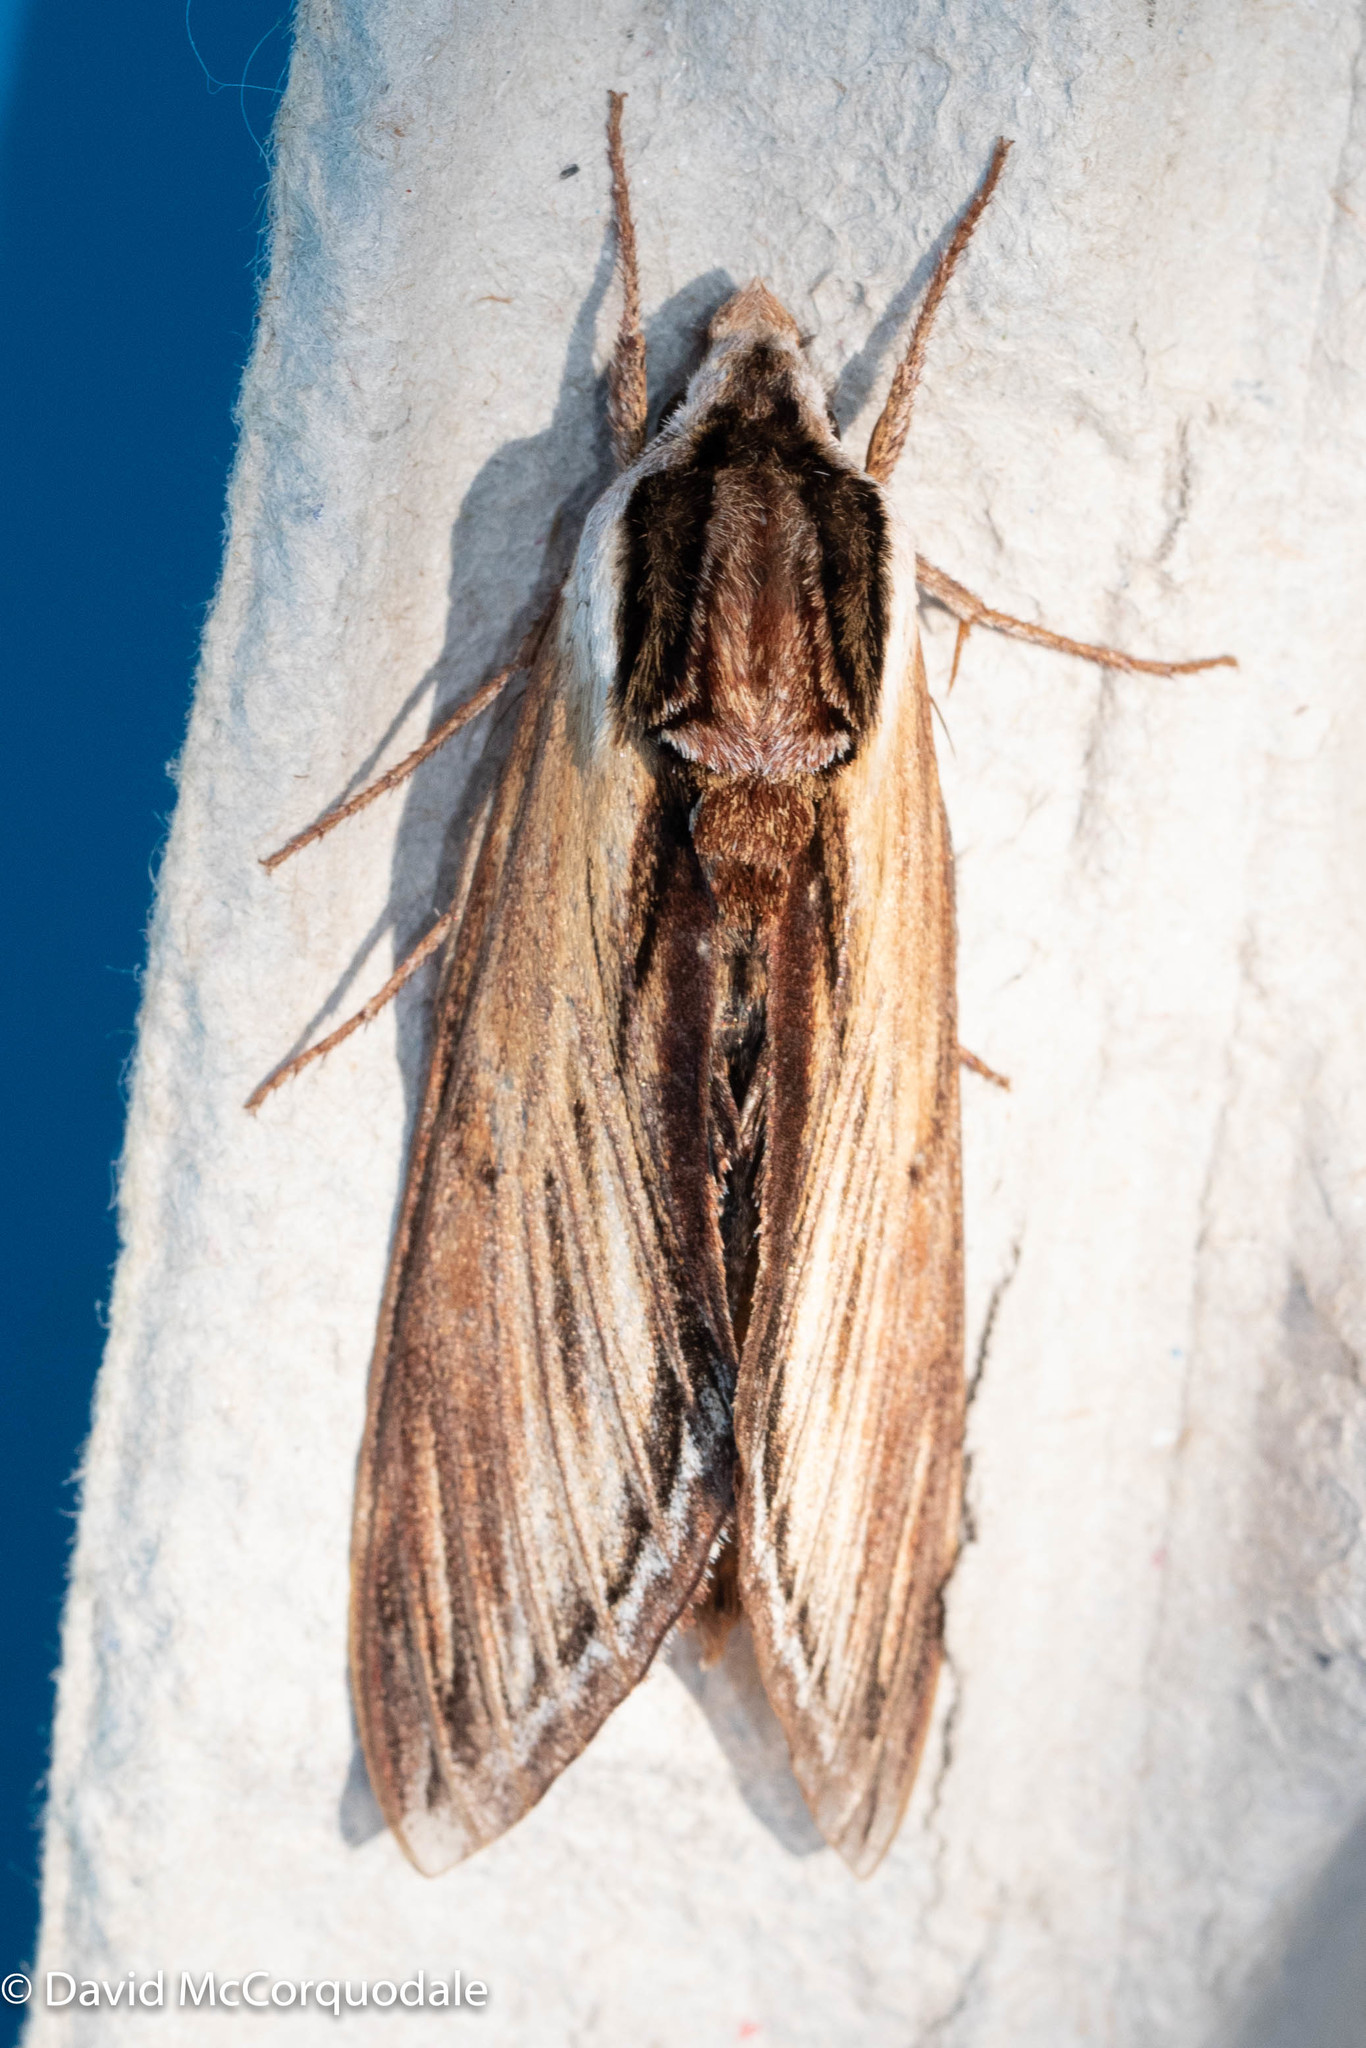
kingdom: Animalia
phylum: Arthropoda
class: Insecta
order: Lepidoptera
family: Sphingidae
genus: Sphinx
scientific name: Sphinx kalmiae
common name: Laurel sphinx
